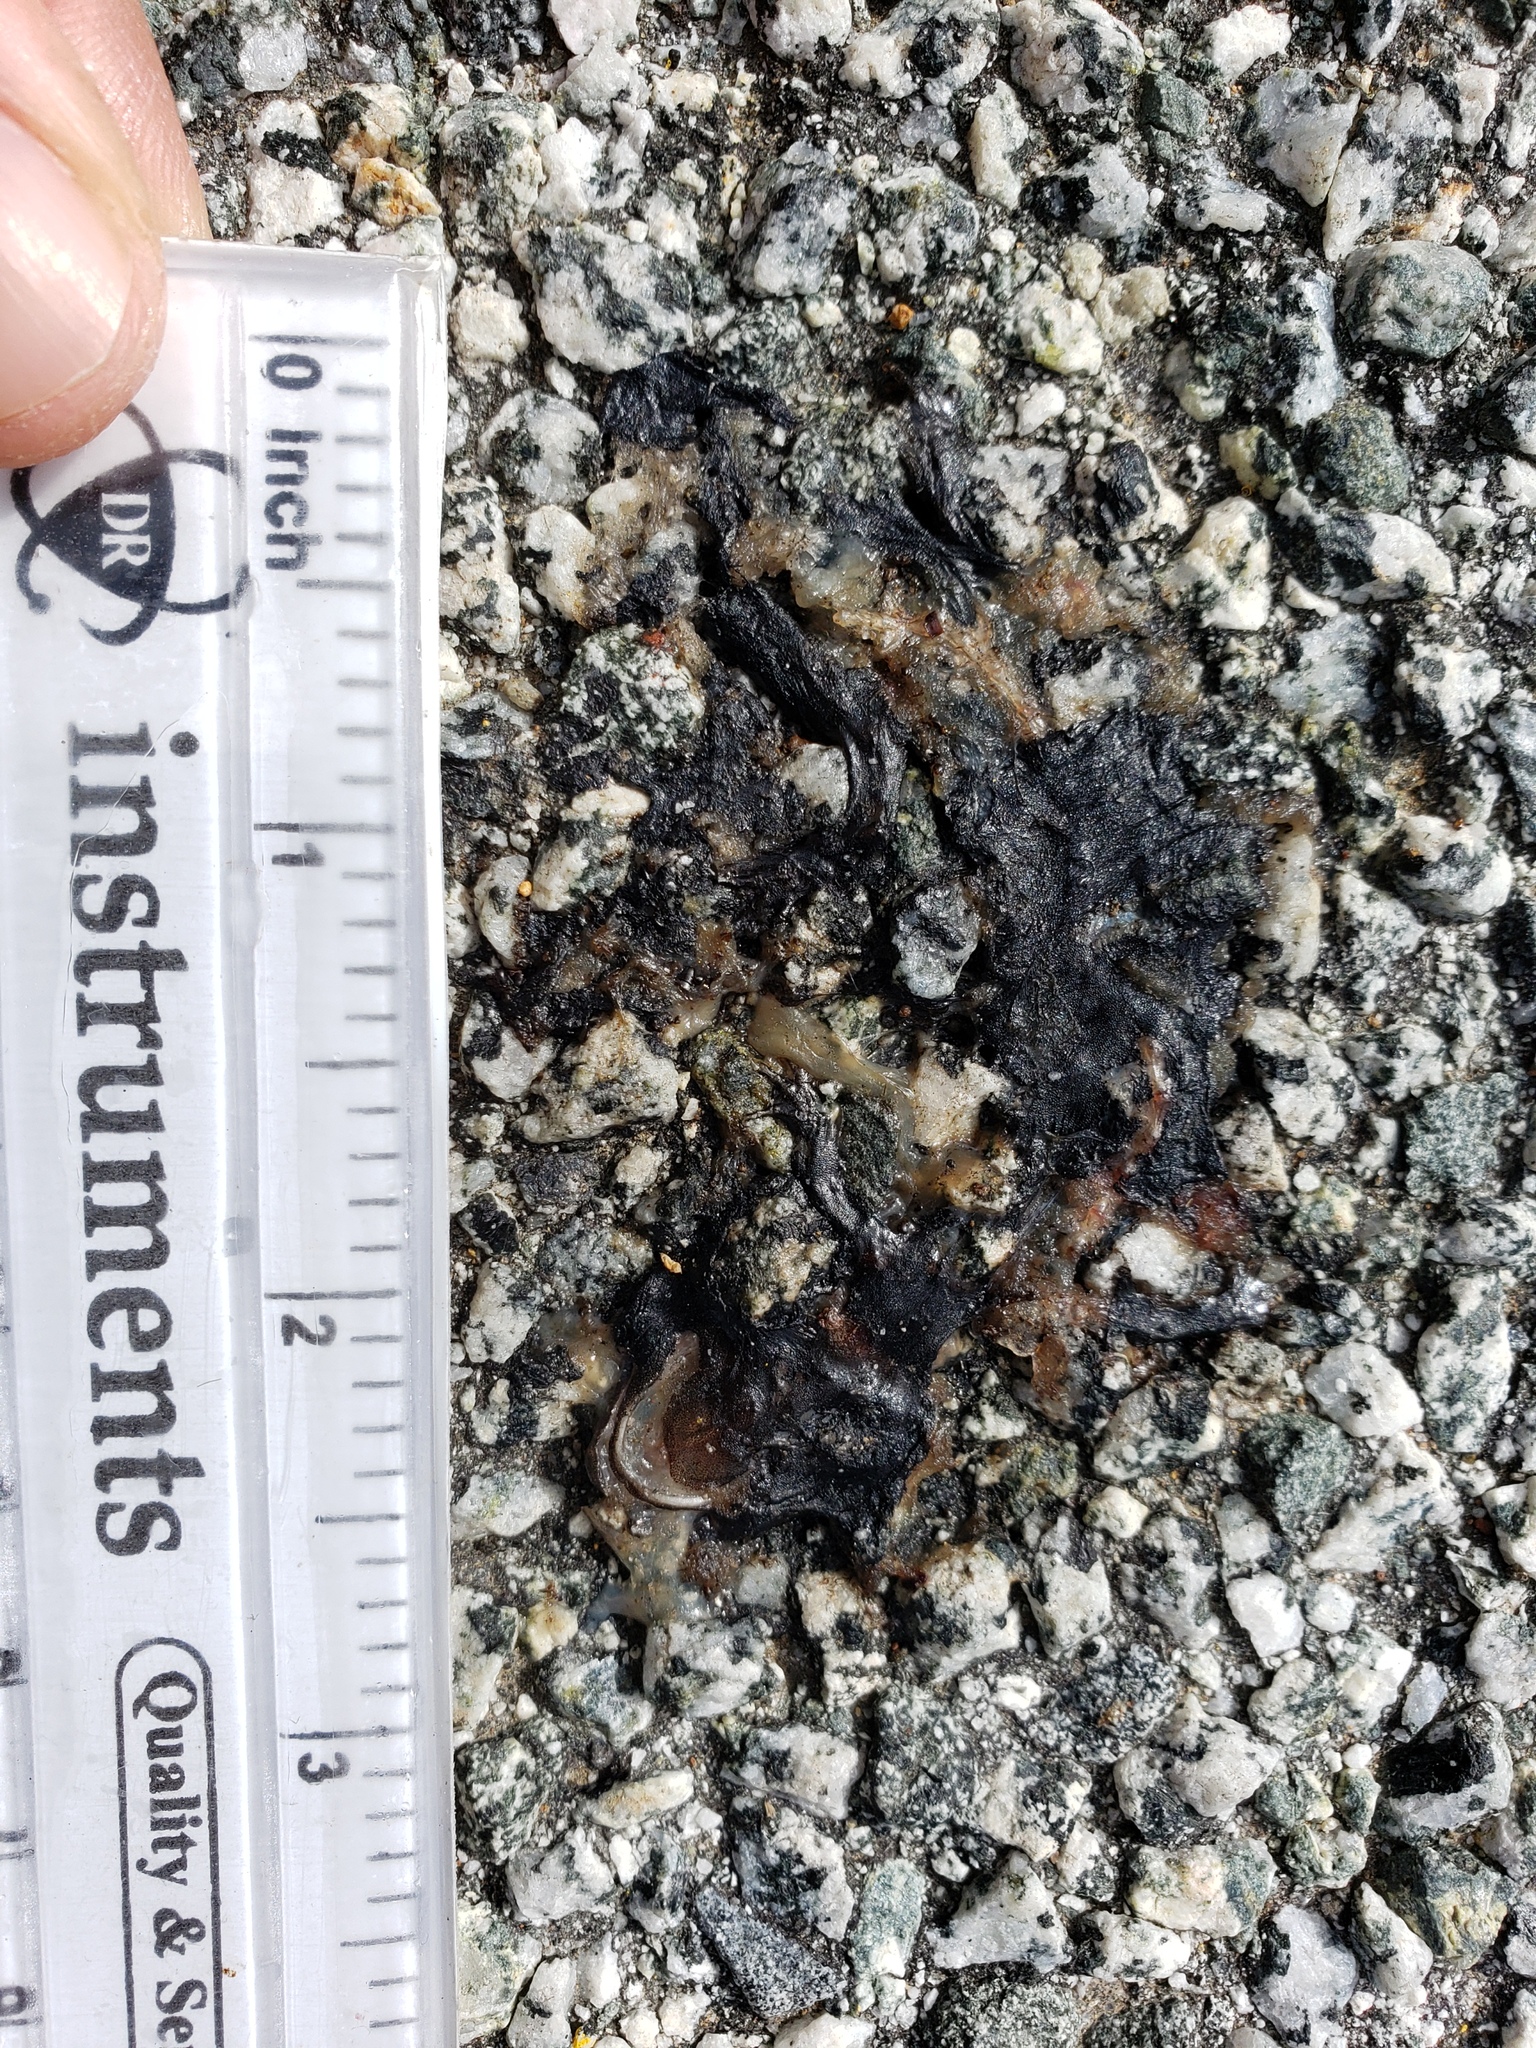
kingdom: Animalia
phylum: Chordata
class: Amphibia
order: Caudata
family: Salamandridae
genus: Taricha
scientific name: Taricha
